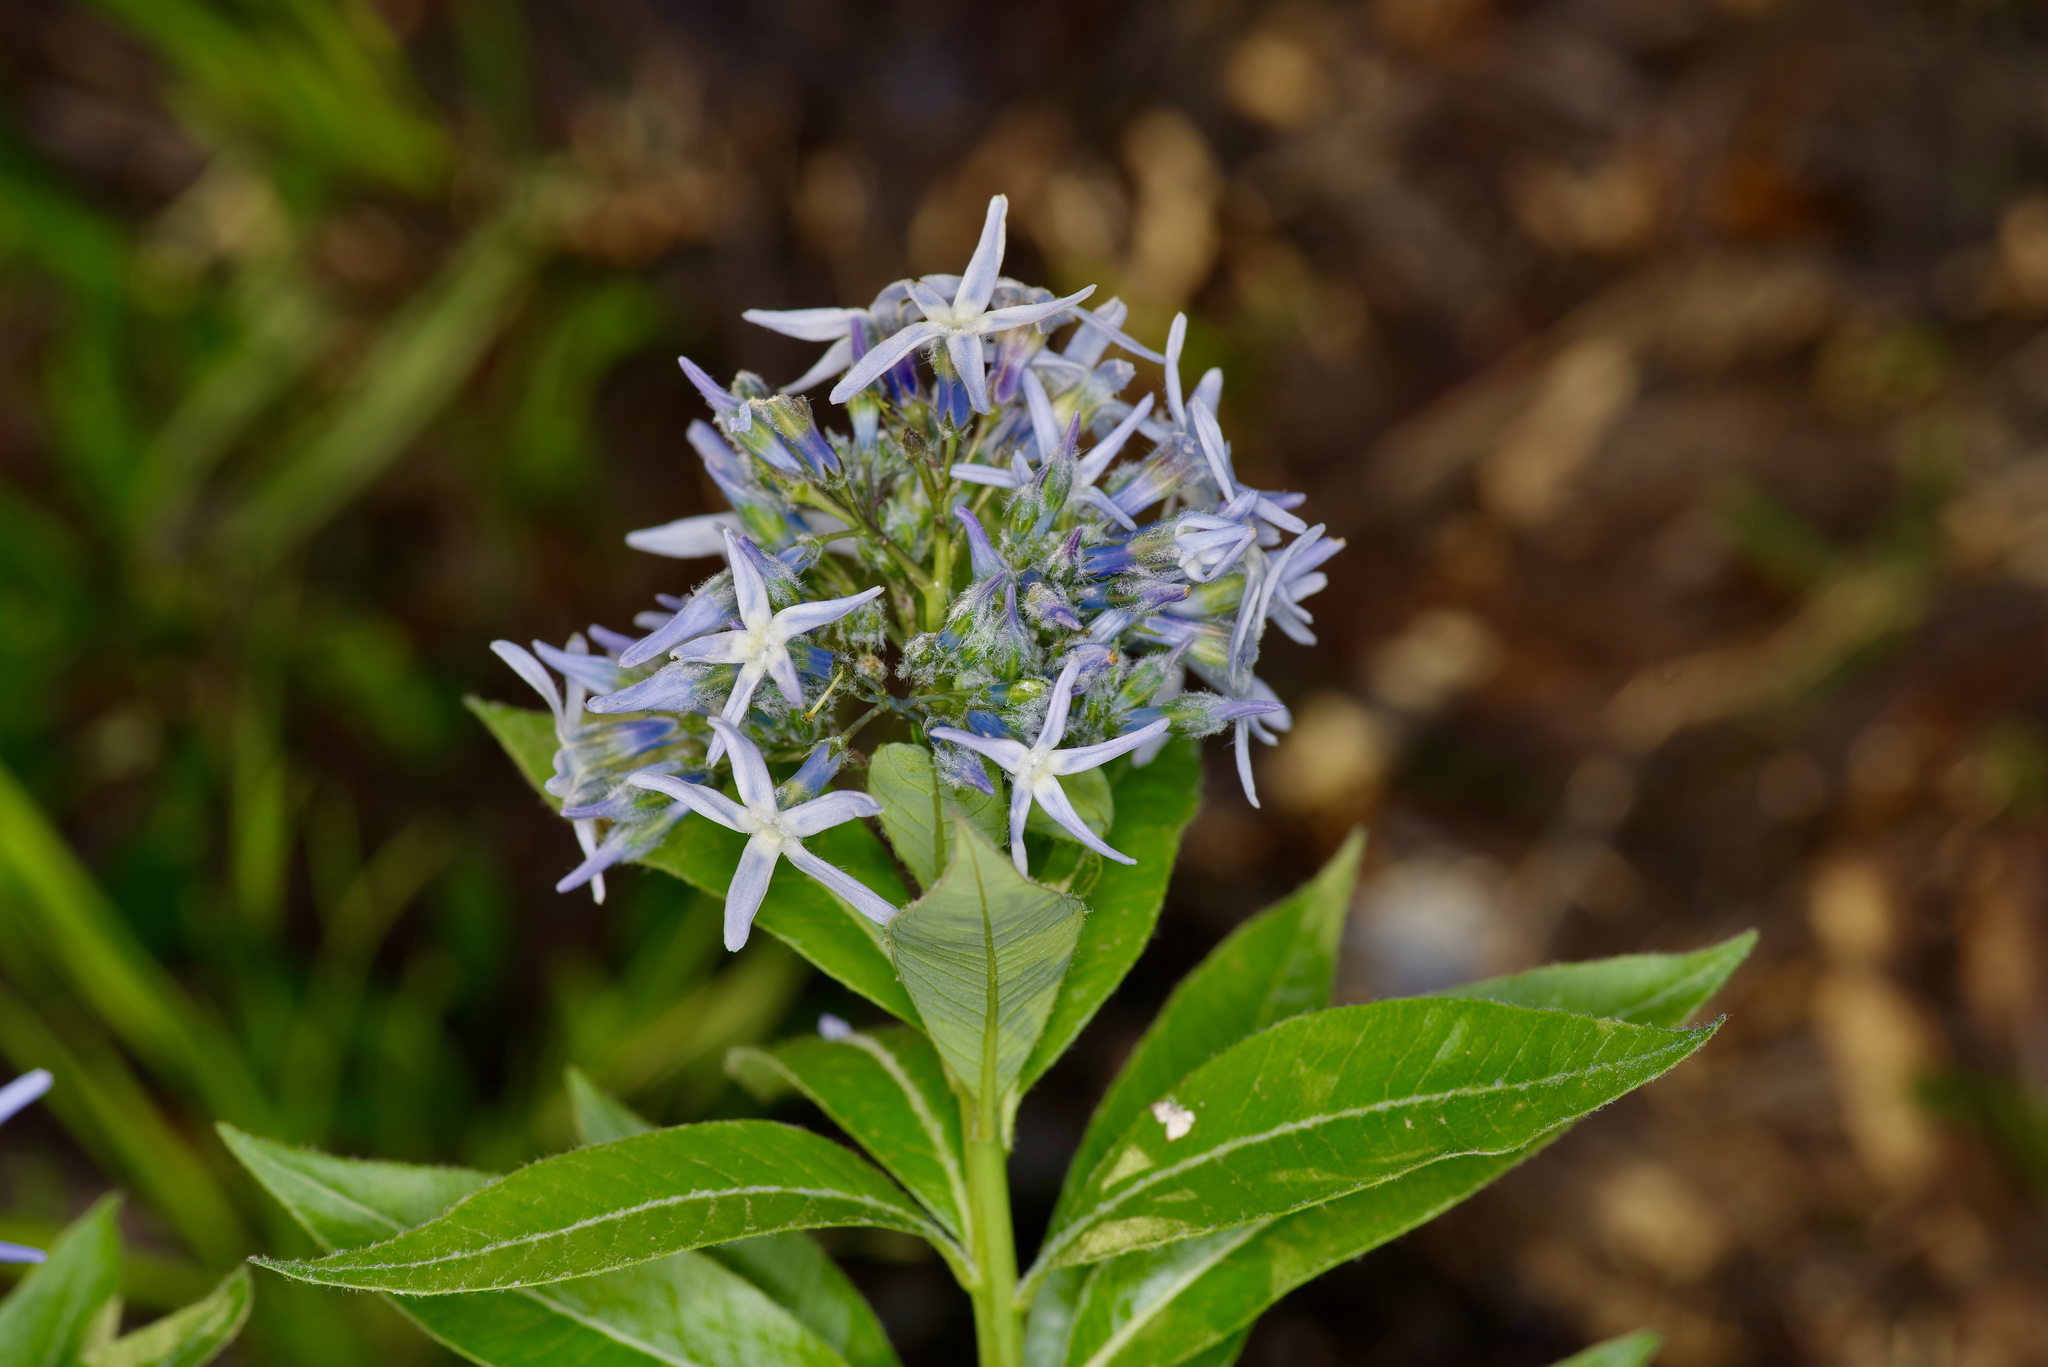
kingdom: Plantae
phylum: Tracheophyta
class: Magnoliopsida
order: Gentianales
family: Apocynaceae
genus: Amsonia
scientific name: Amsonia tabernaemontana
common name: Texas-star
